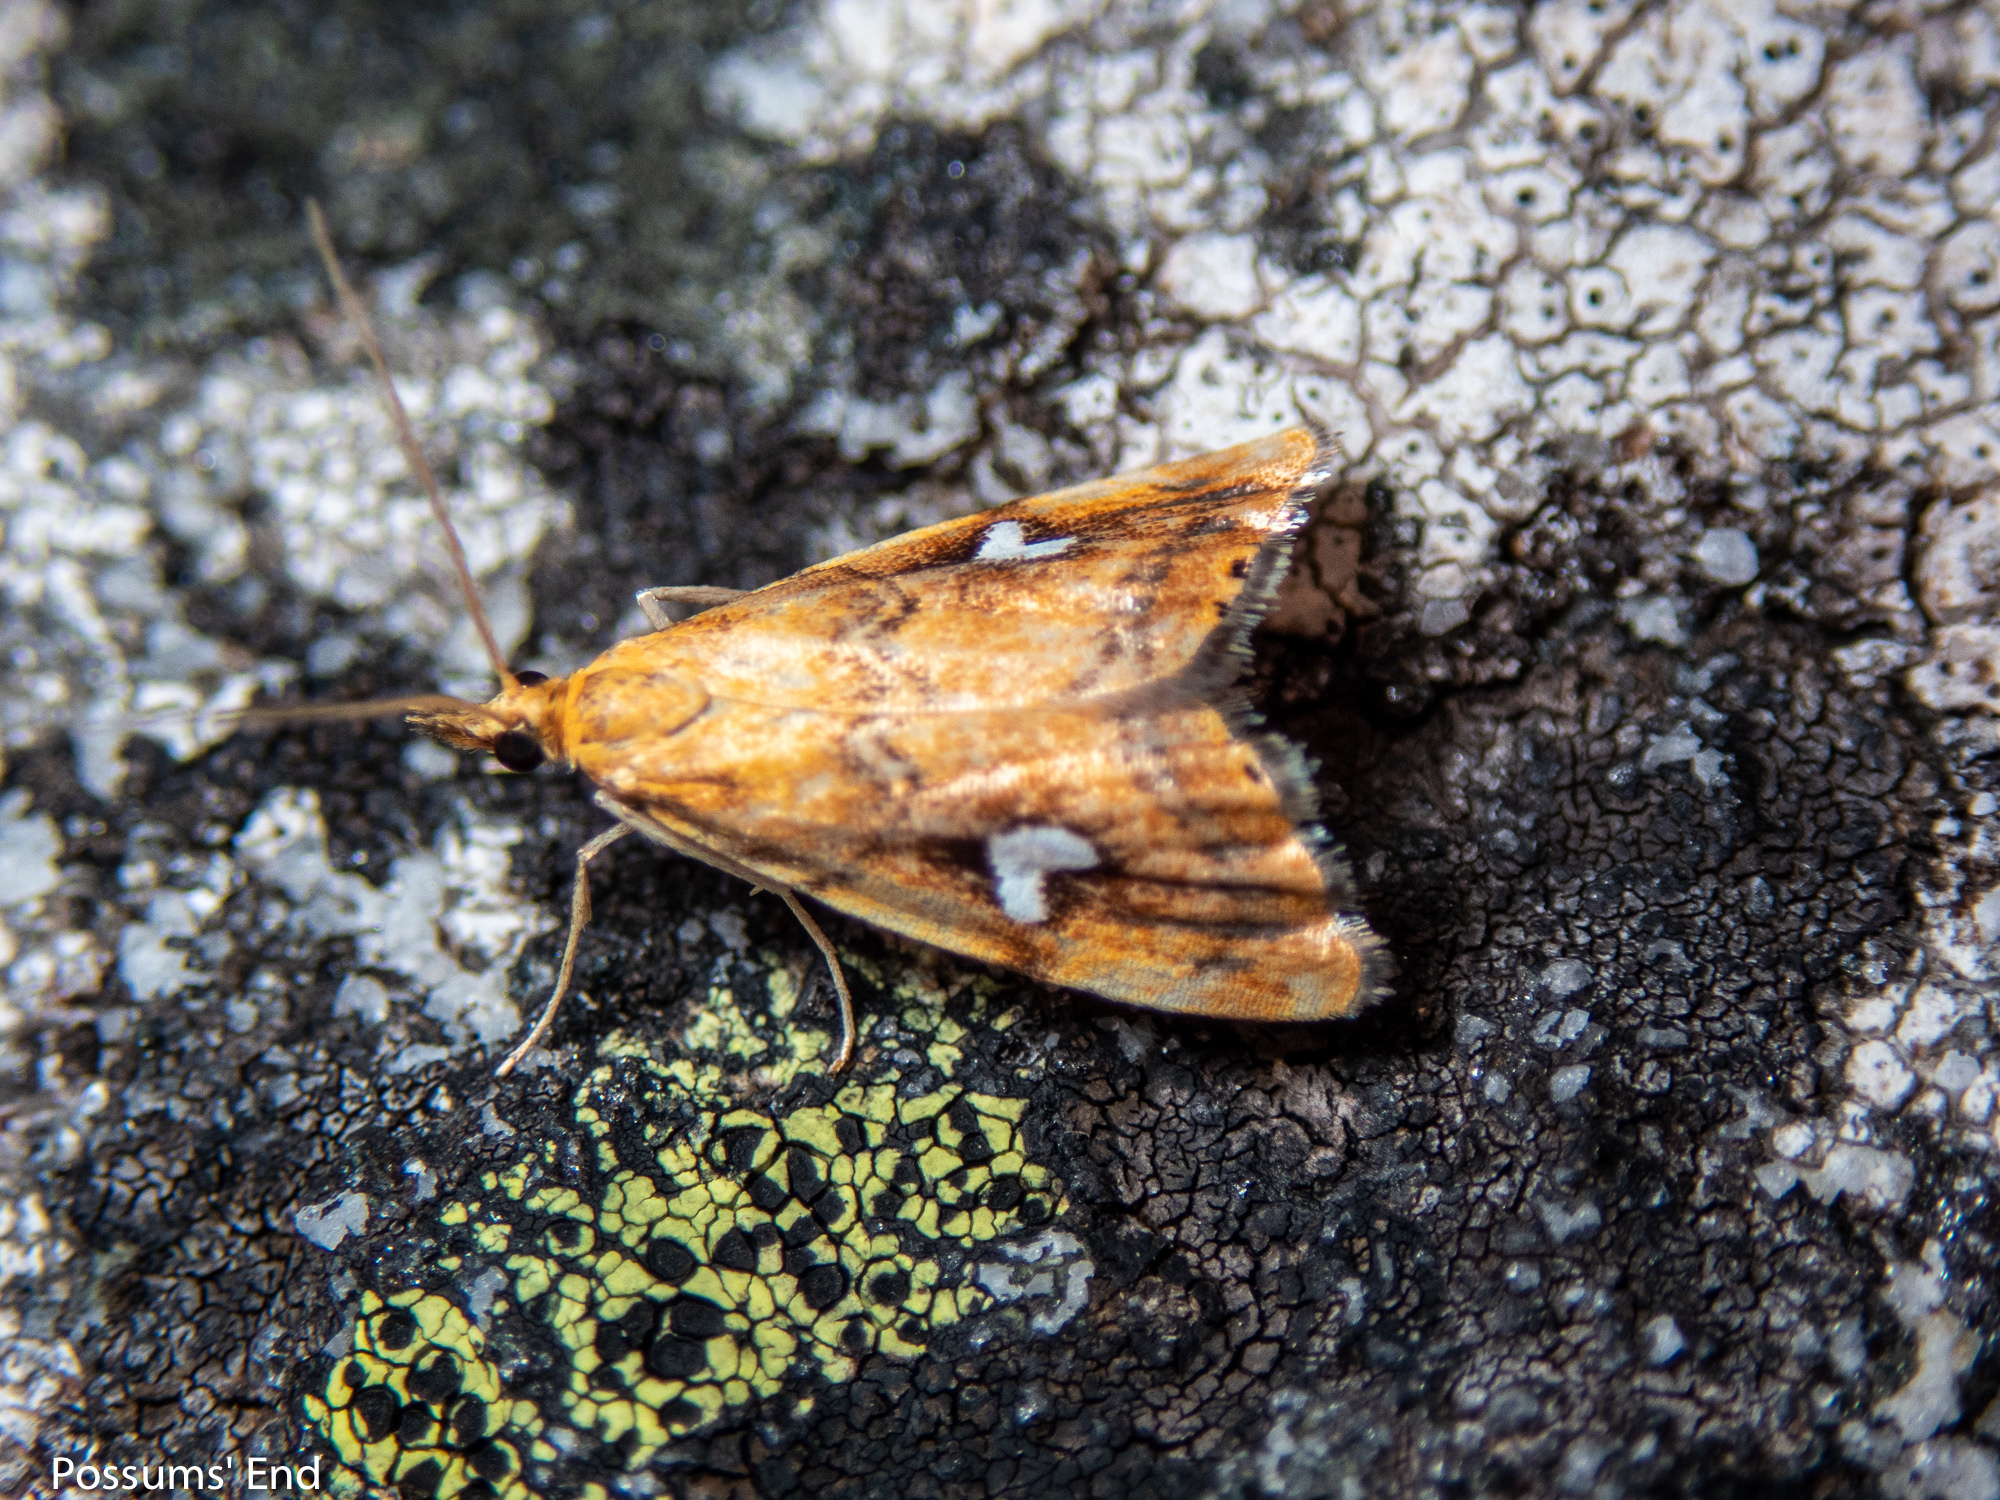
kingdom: Animalia
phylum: Arthropoda
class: Insecta
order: Lepidoptera
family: Crambidae
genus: Glaucocharis
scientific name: Glaucocharis leucoxantha
